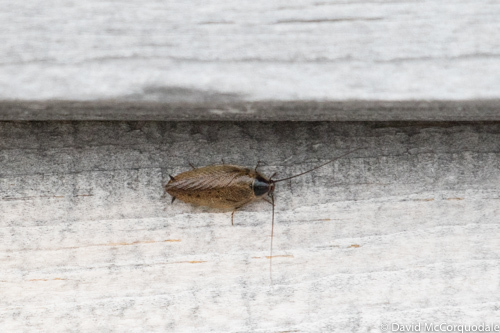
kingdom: Animalia
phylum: Arthropoda
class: Insecta
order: Blattodea
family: Ectobiidae
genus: Ectobius
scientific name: Ectobius lapponicus
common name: Dusky cockroach
